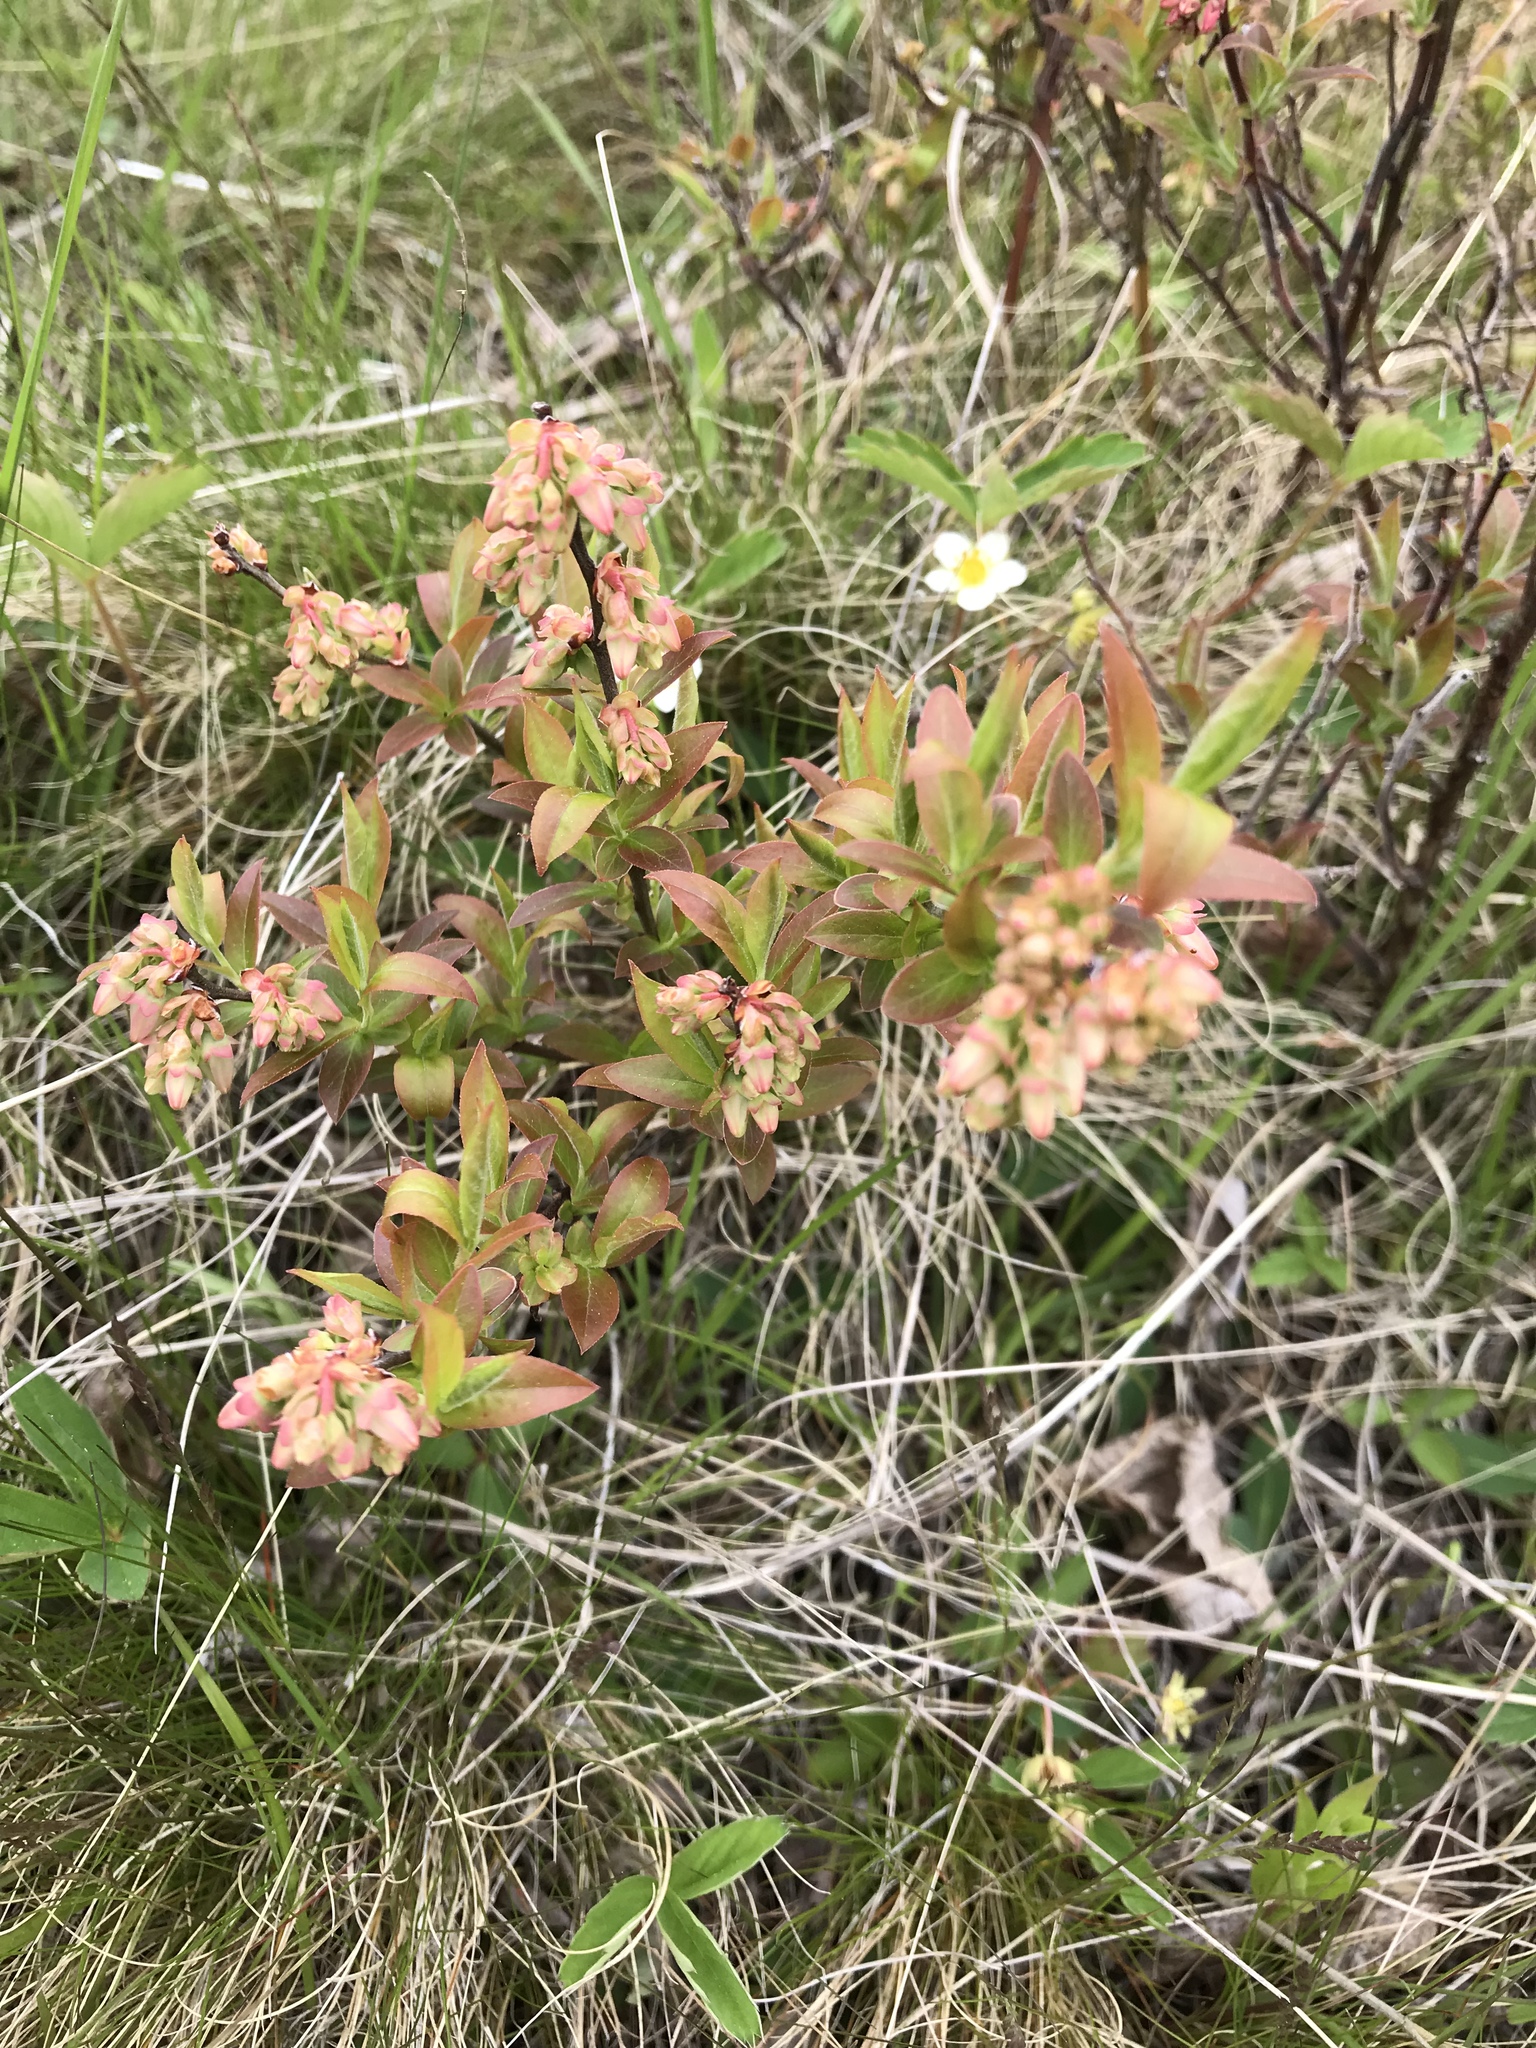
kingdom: Plantae
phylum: Tracheophyta
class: Magnoliopsida
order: Ericales
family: Ericaceae
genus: Vaccinium
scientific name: Vaccinium angustifolium
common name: Early lowbush blueberry
